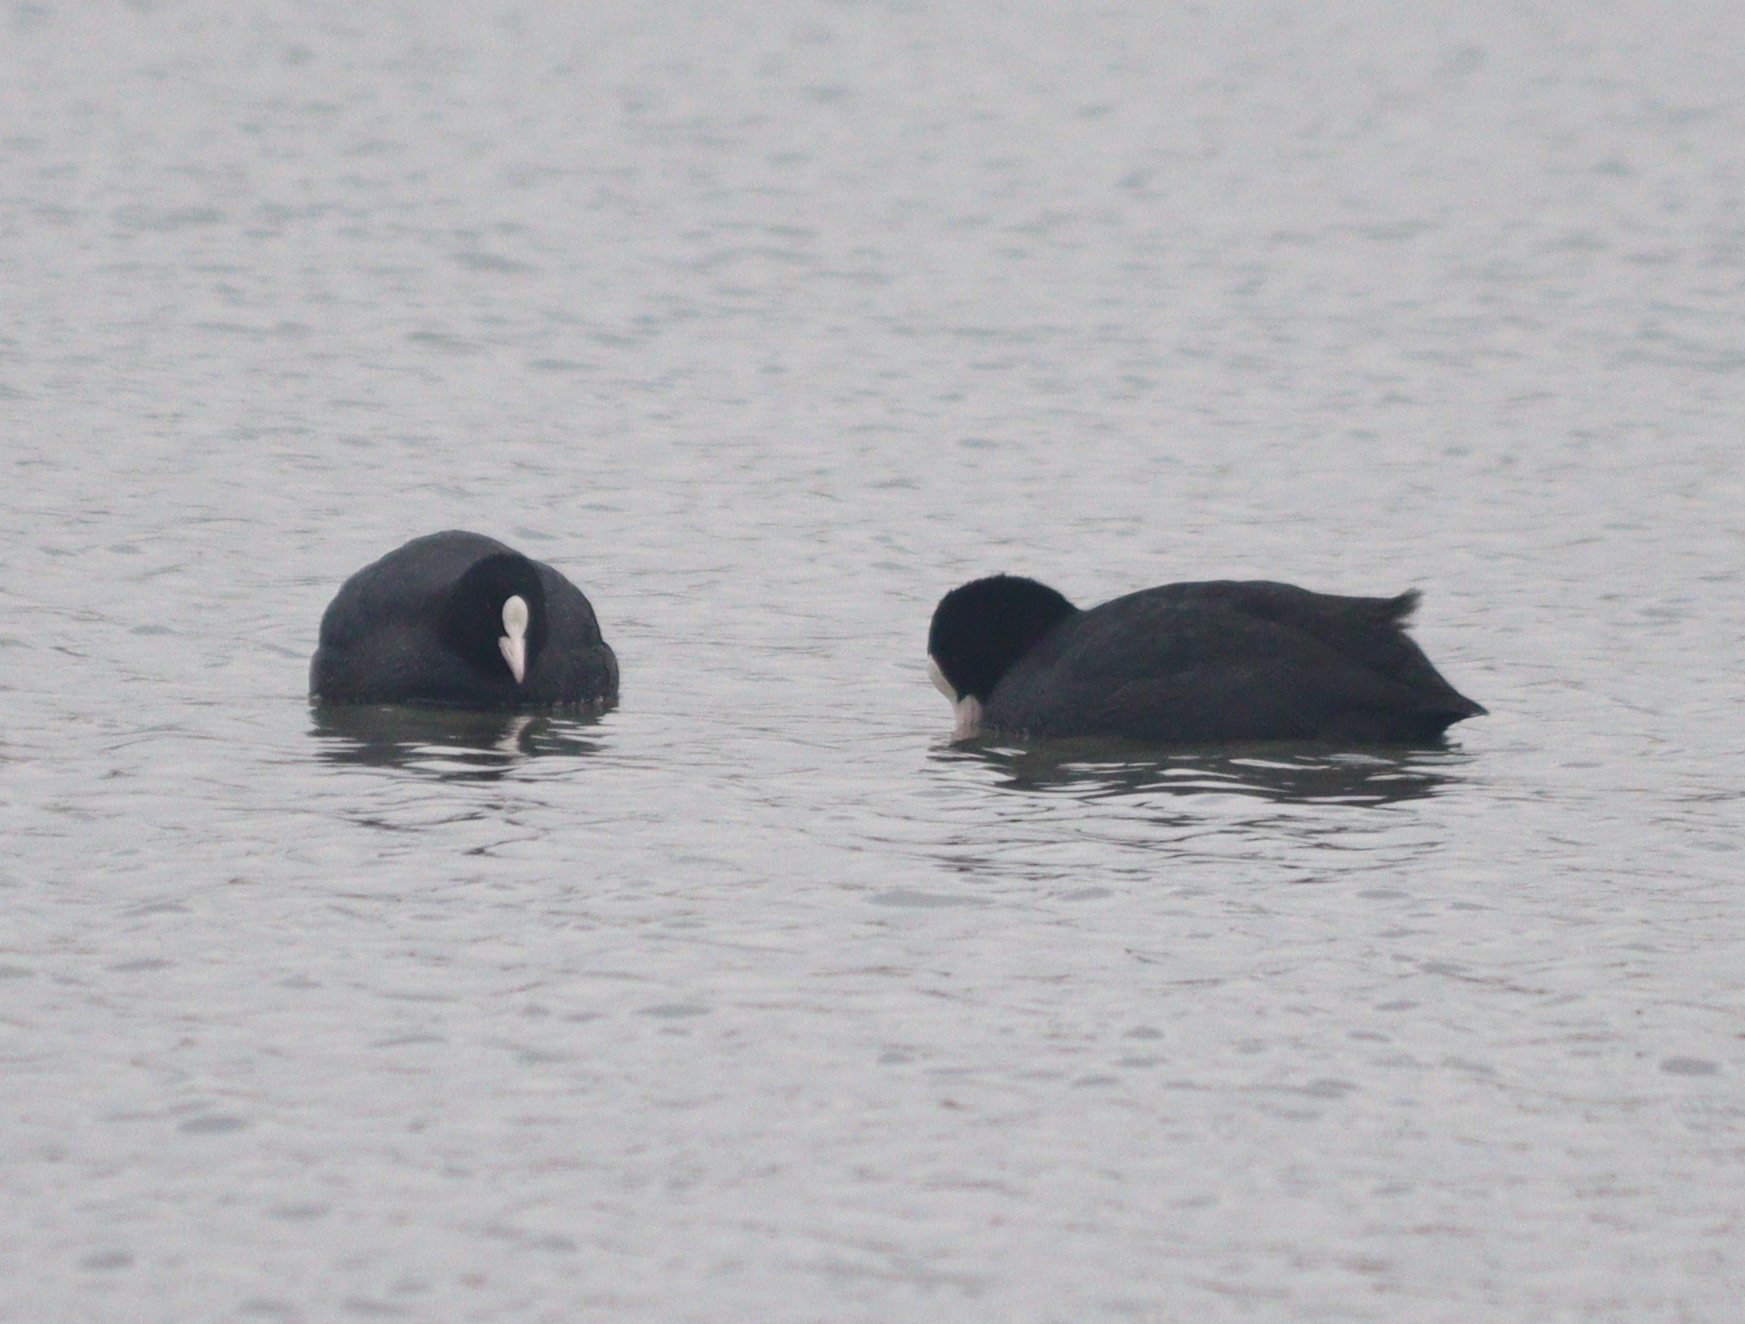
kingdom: Animalia
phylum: Chordata
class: Aves
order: Gruiformes
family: Rallidae
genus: Fulica
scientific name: Fulica atra
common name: Eurasian coot
